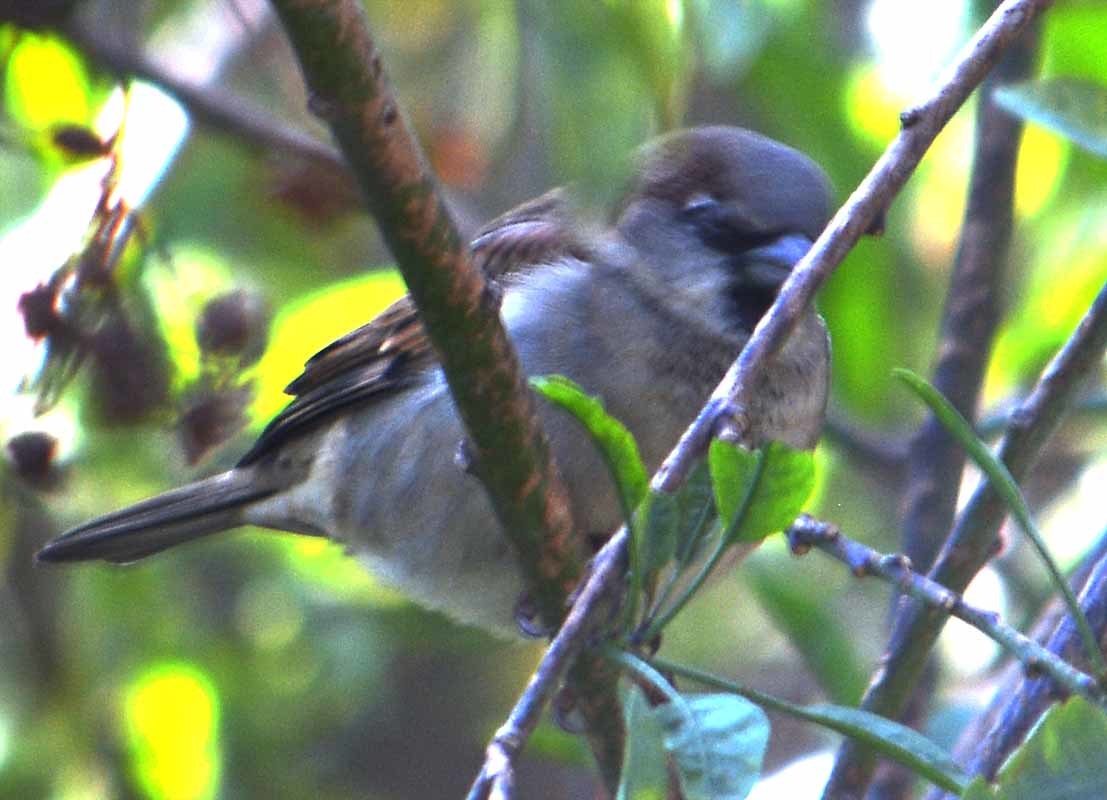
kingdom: Animalia
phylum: Chordata
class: Aves
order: Passeriformes
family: Passeridae
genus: Passer
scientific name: Passer domesticus
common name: House sparrow
